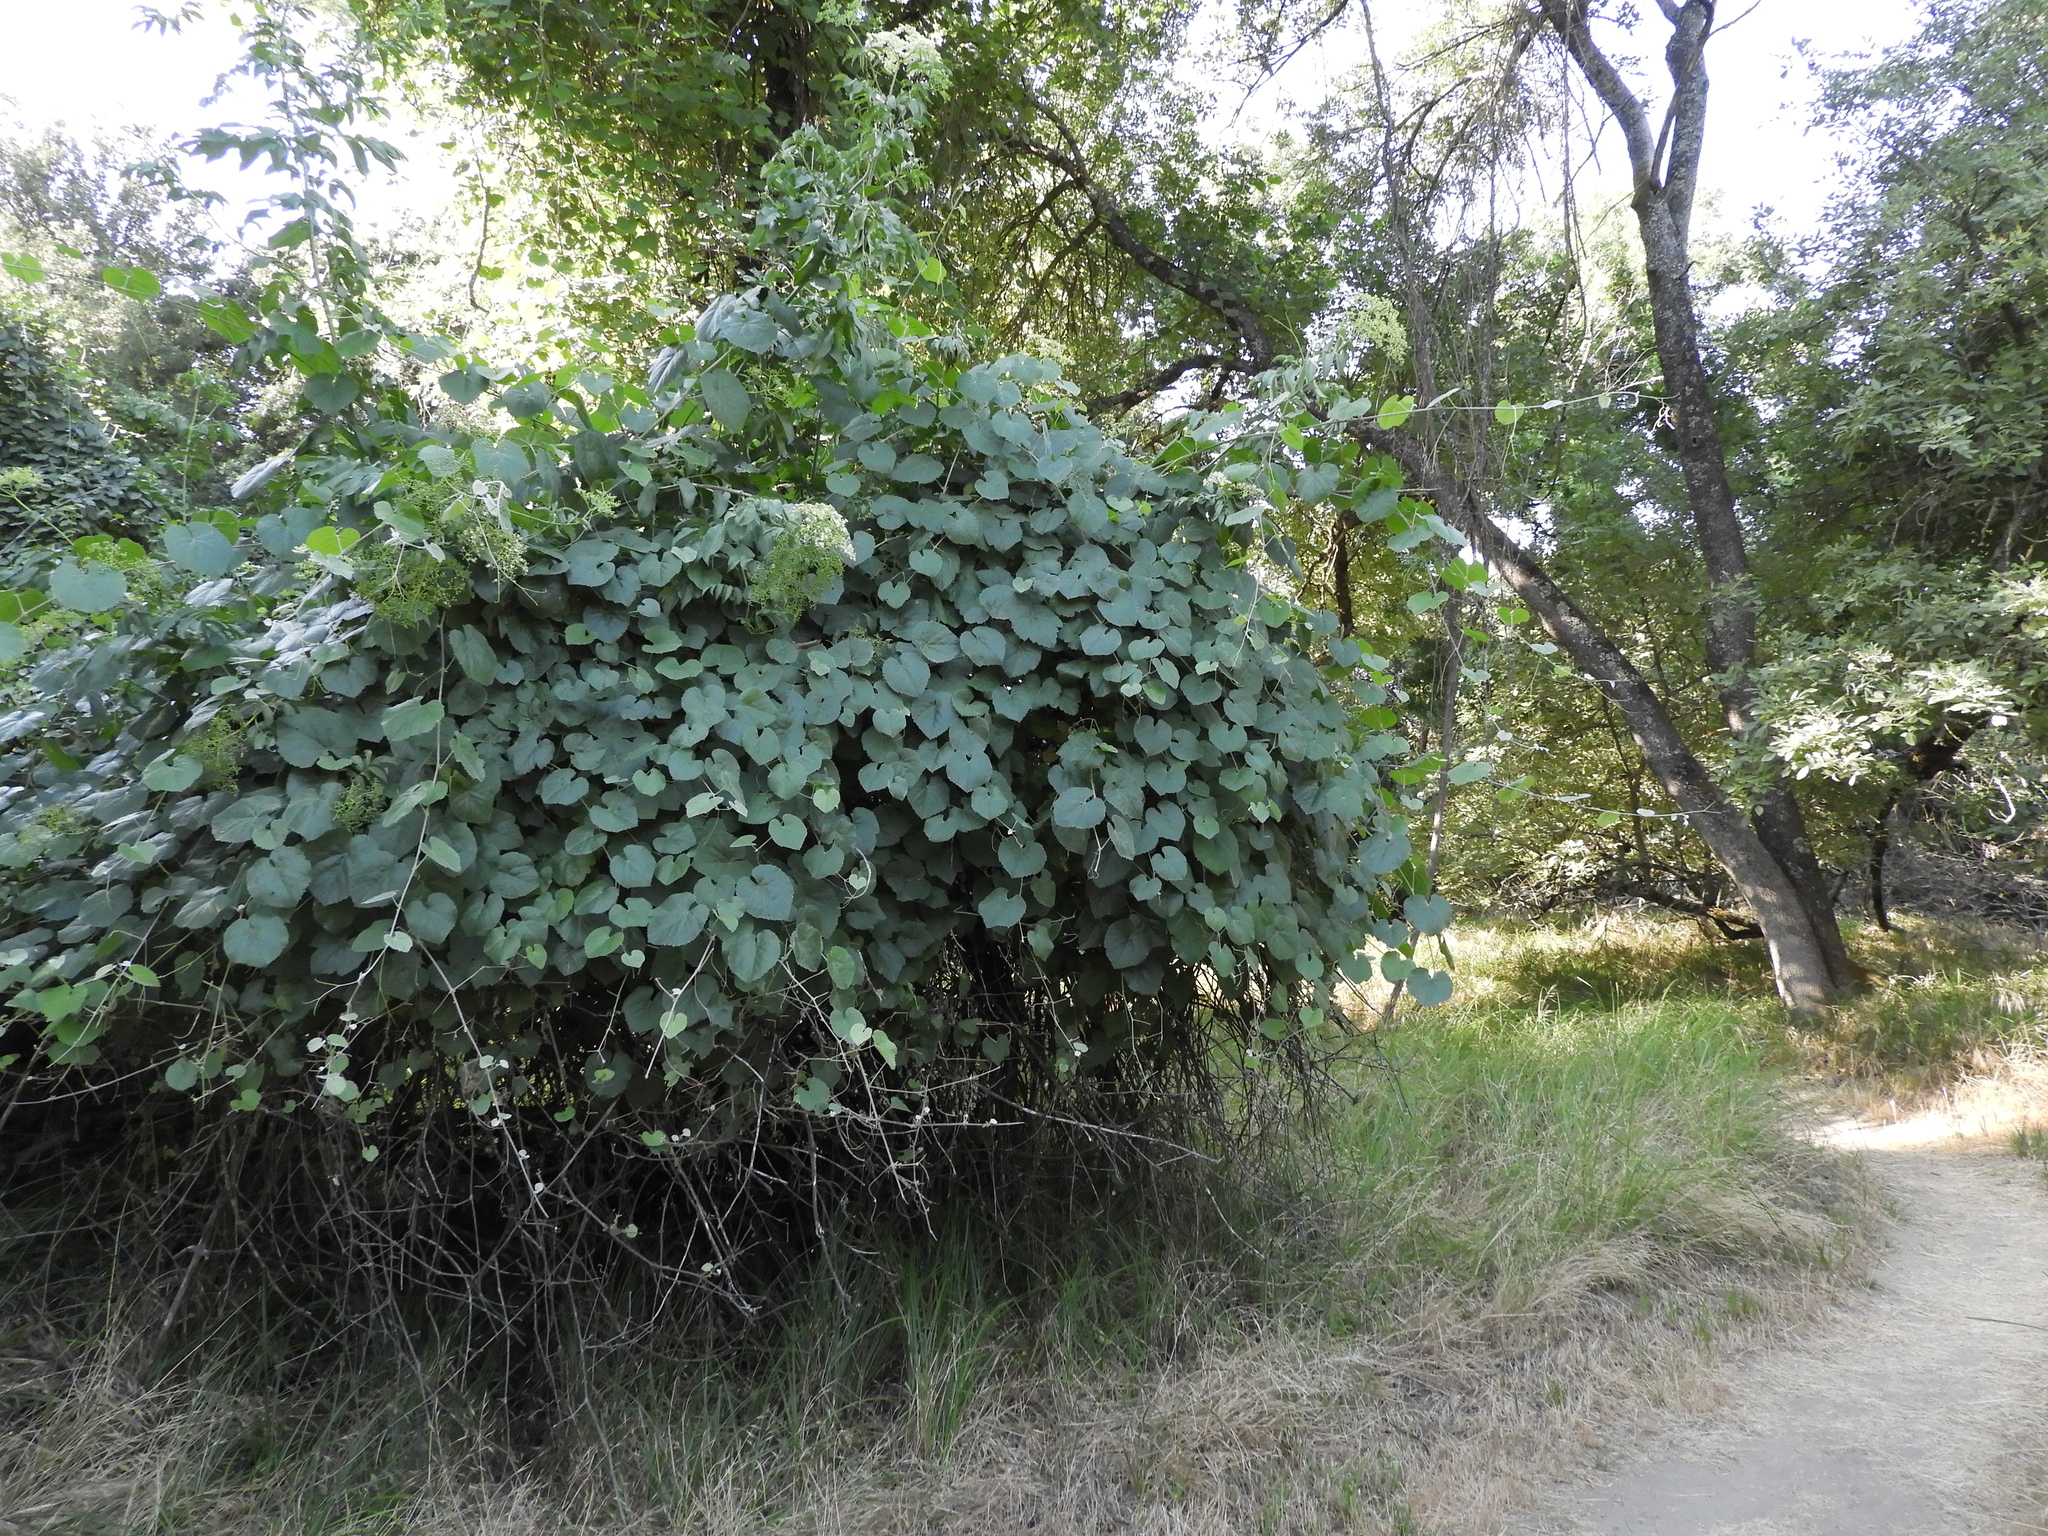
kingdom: Plantae
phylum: Tracheophyta
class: Magnoliopsida
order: Vitales
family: Vitaceae
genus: Vitis
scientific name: Vitis californica
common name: California wild grape
